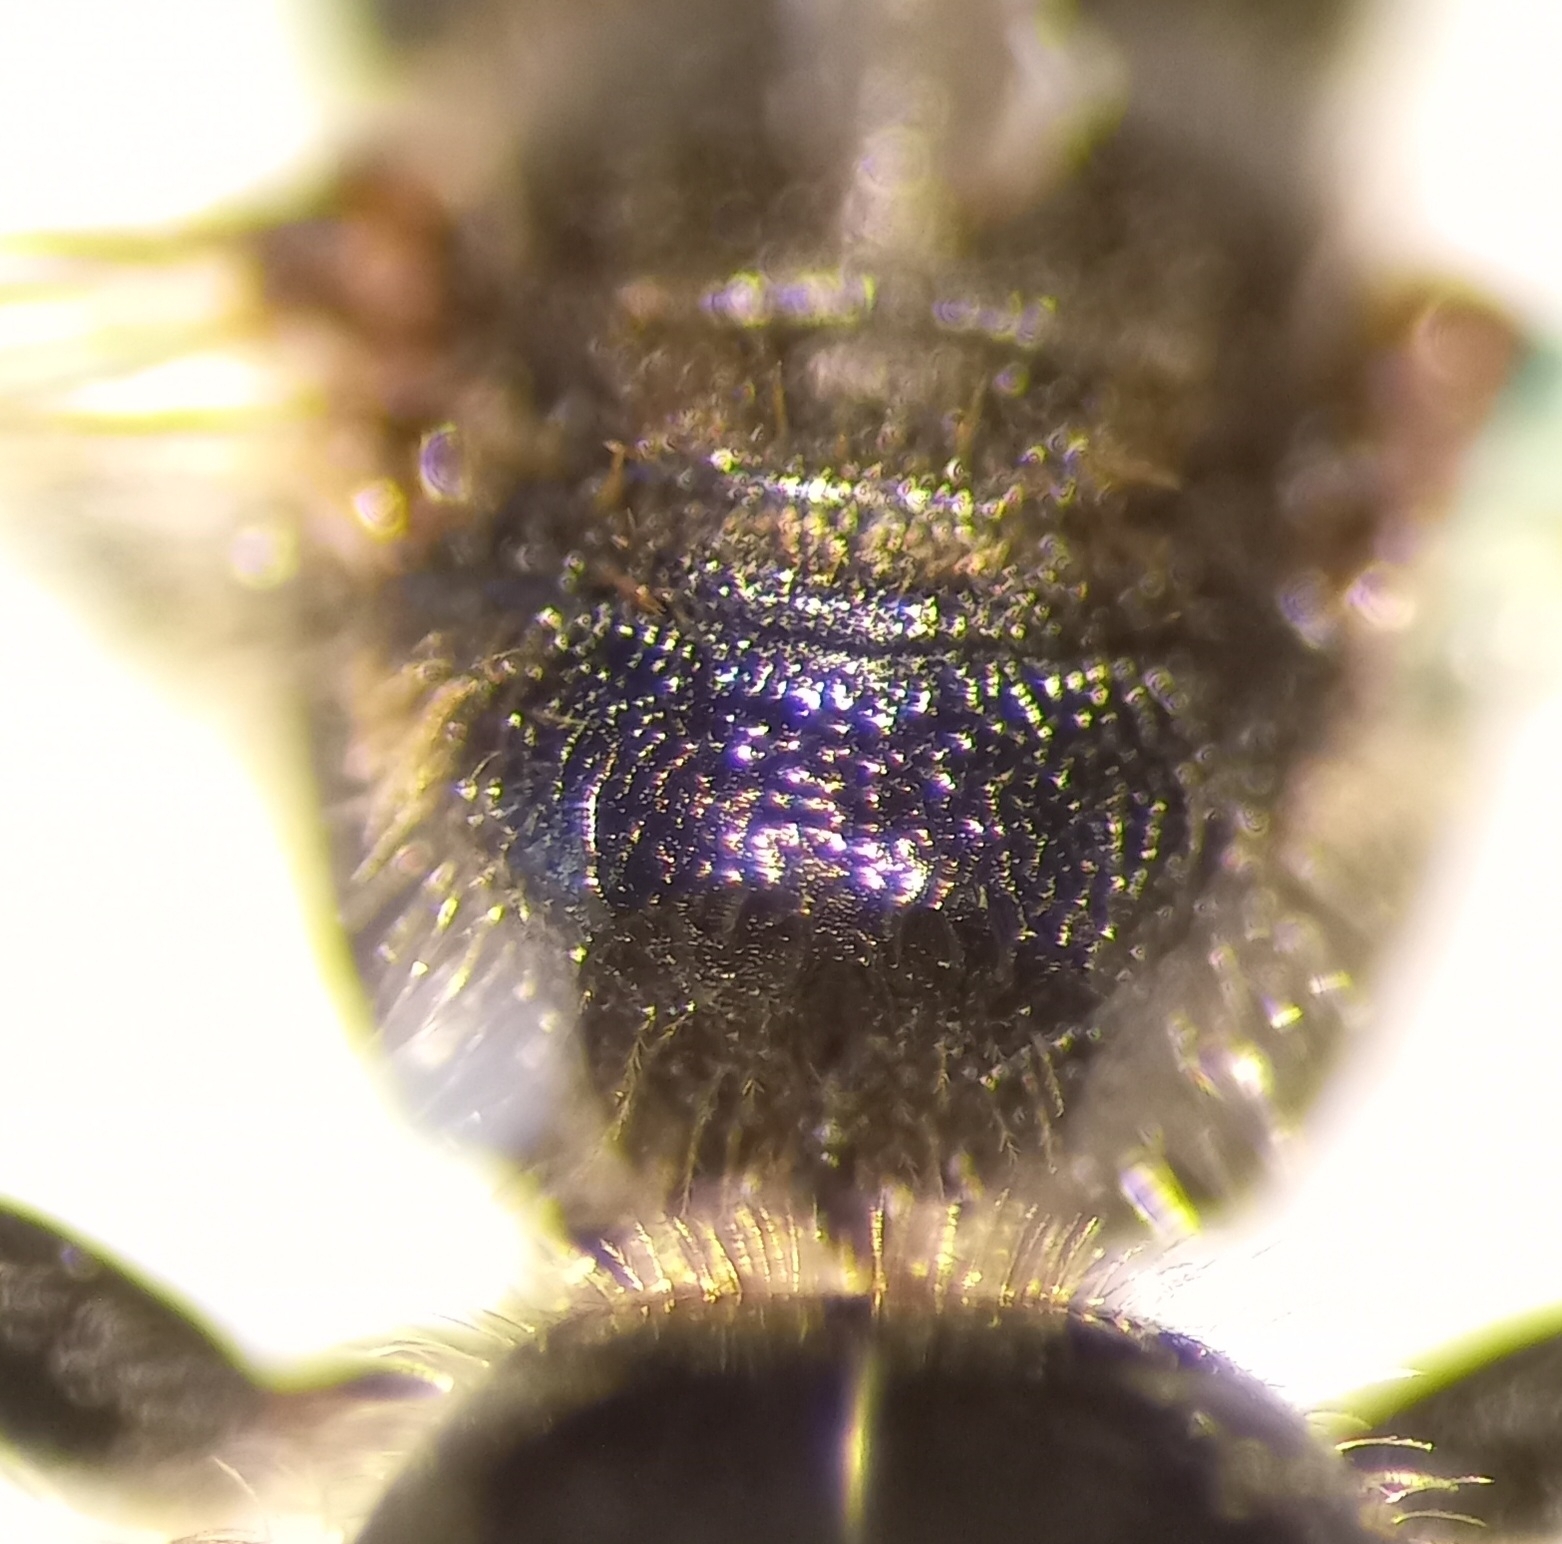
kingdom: Animalia
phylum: Arthropoda
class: Insecta
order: Hymenoptera
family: Halictidae
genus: Lasioglossum
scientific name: Lasioglossum interruptum
